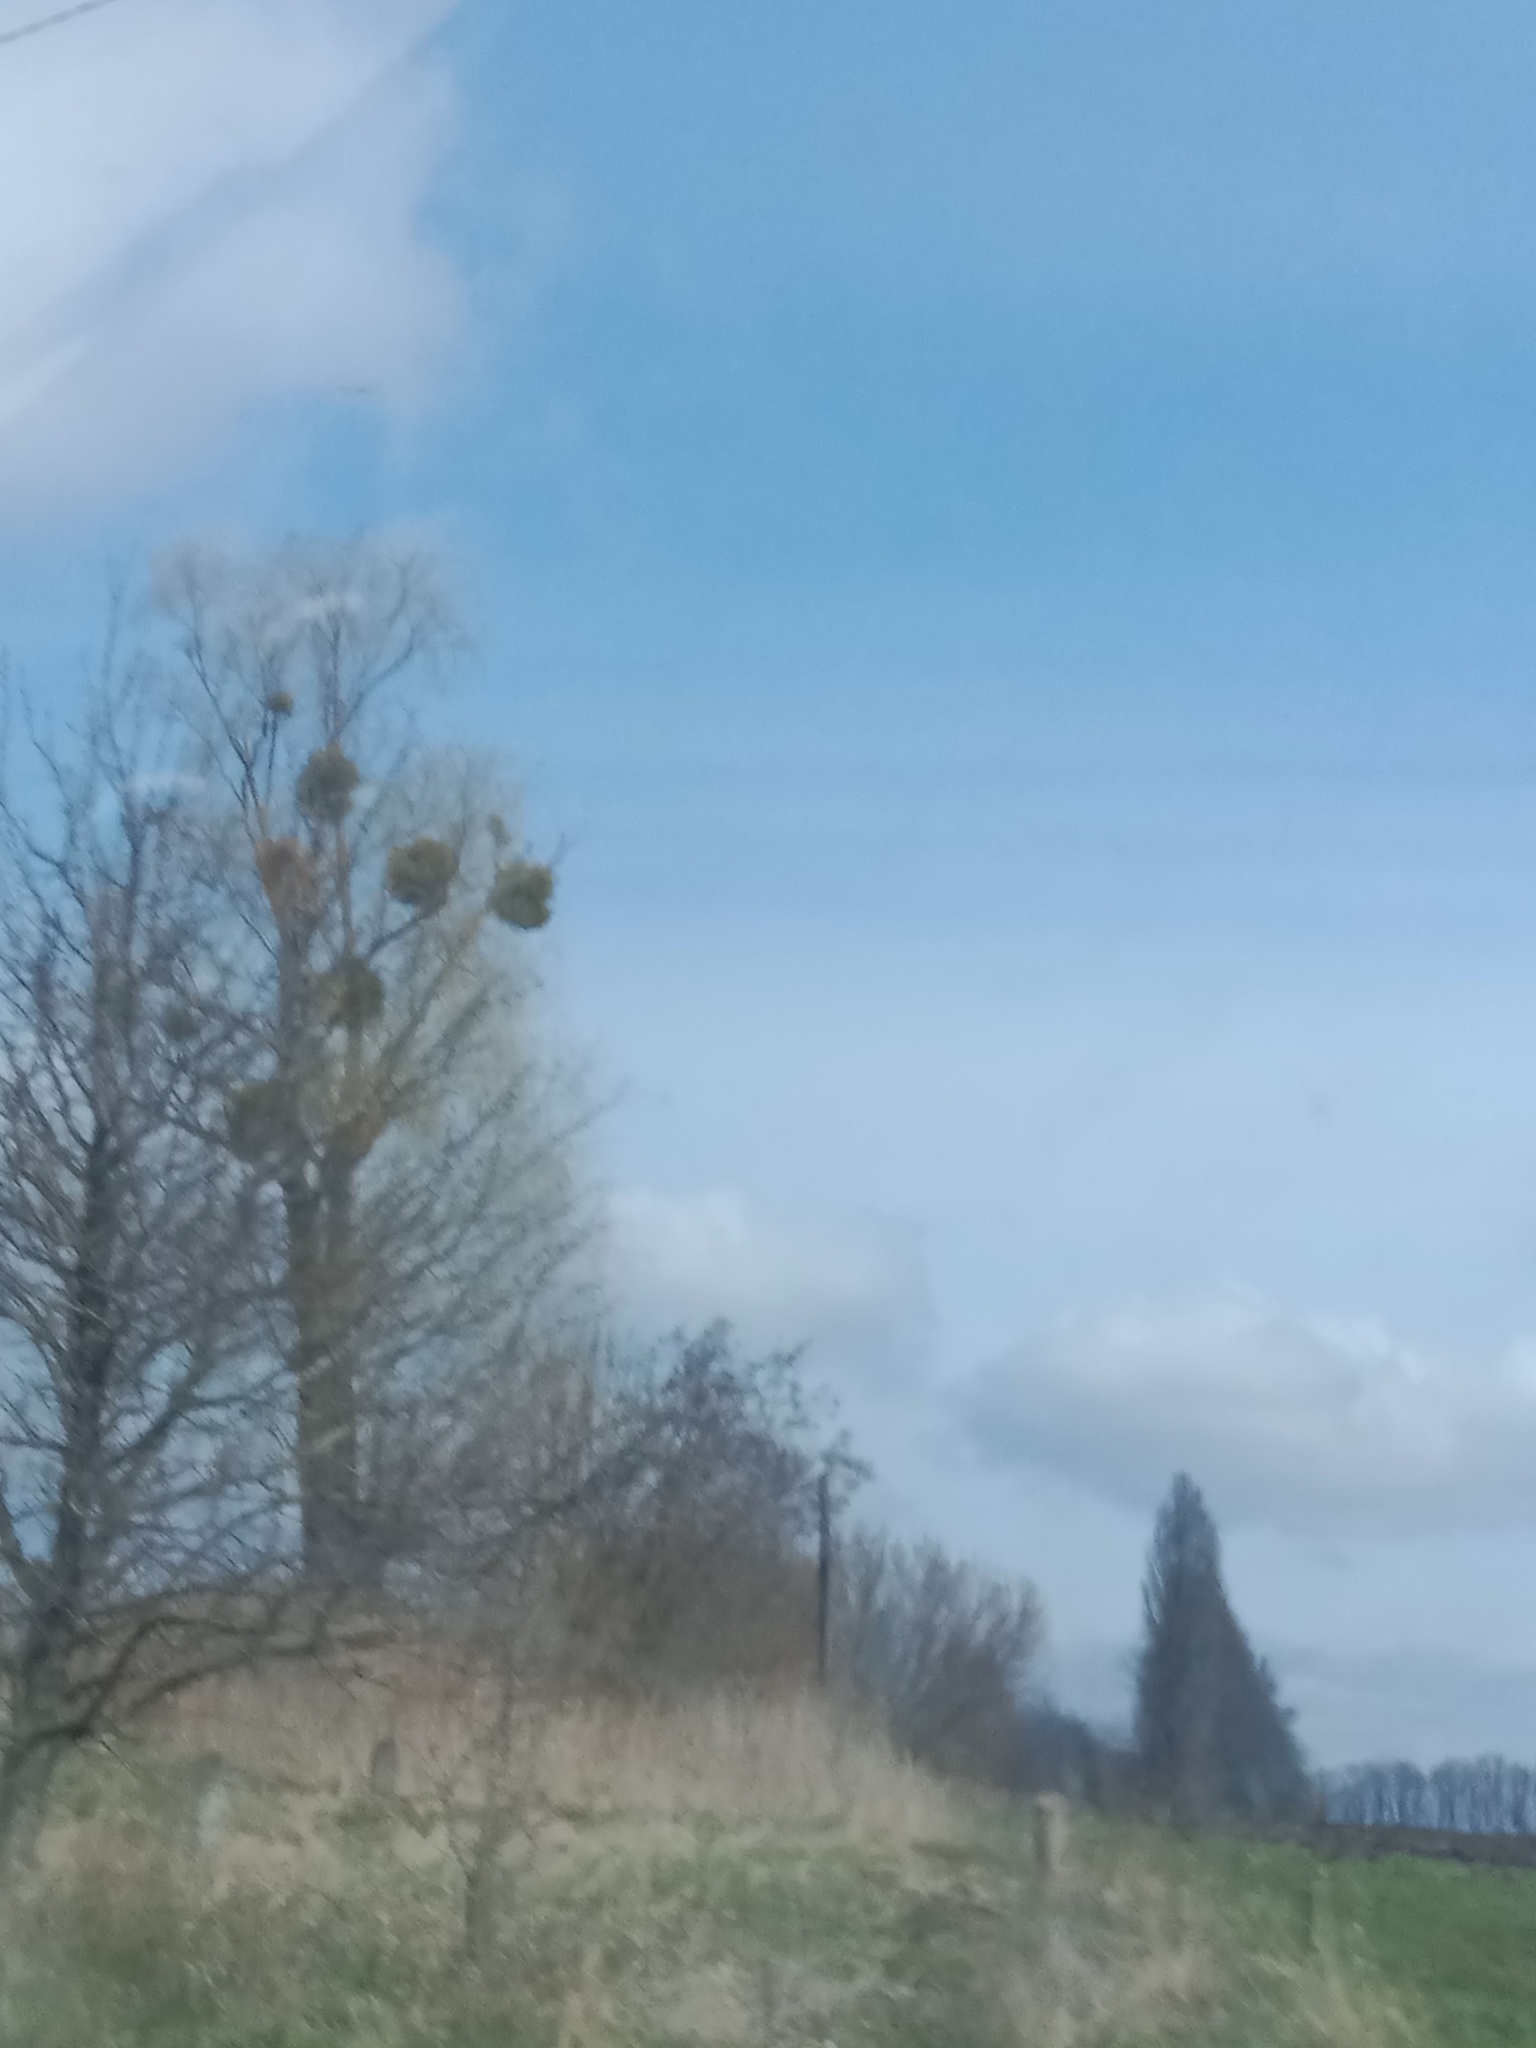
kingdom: Plantae
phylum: Tracheophyta
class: Magnoliopsida
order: Santalales
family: Viscaceae
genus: Viscum
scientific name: Viscum album
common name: Mistletoe
